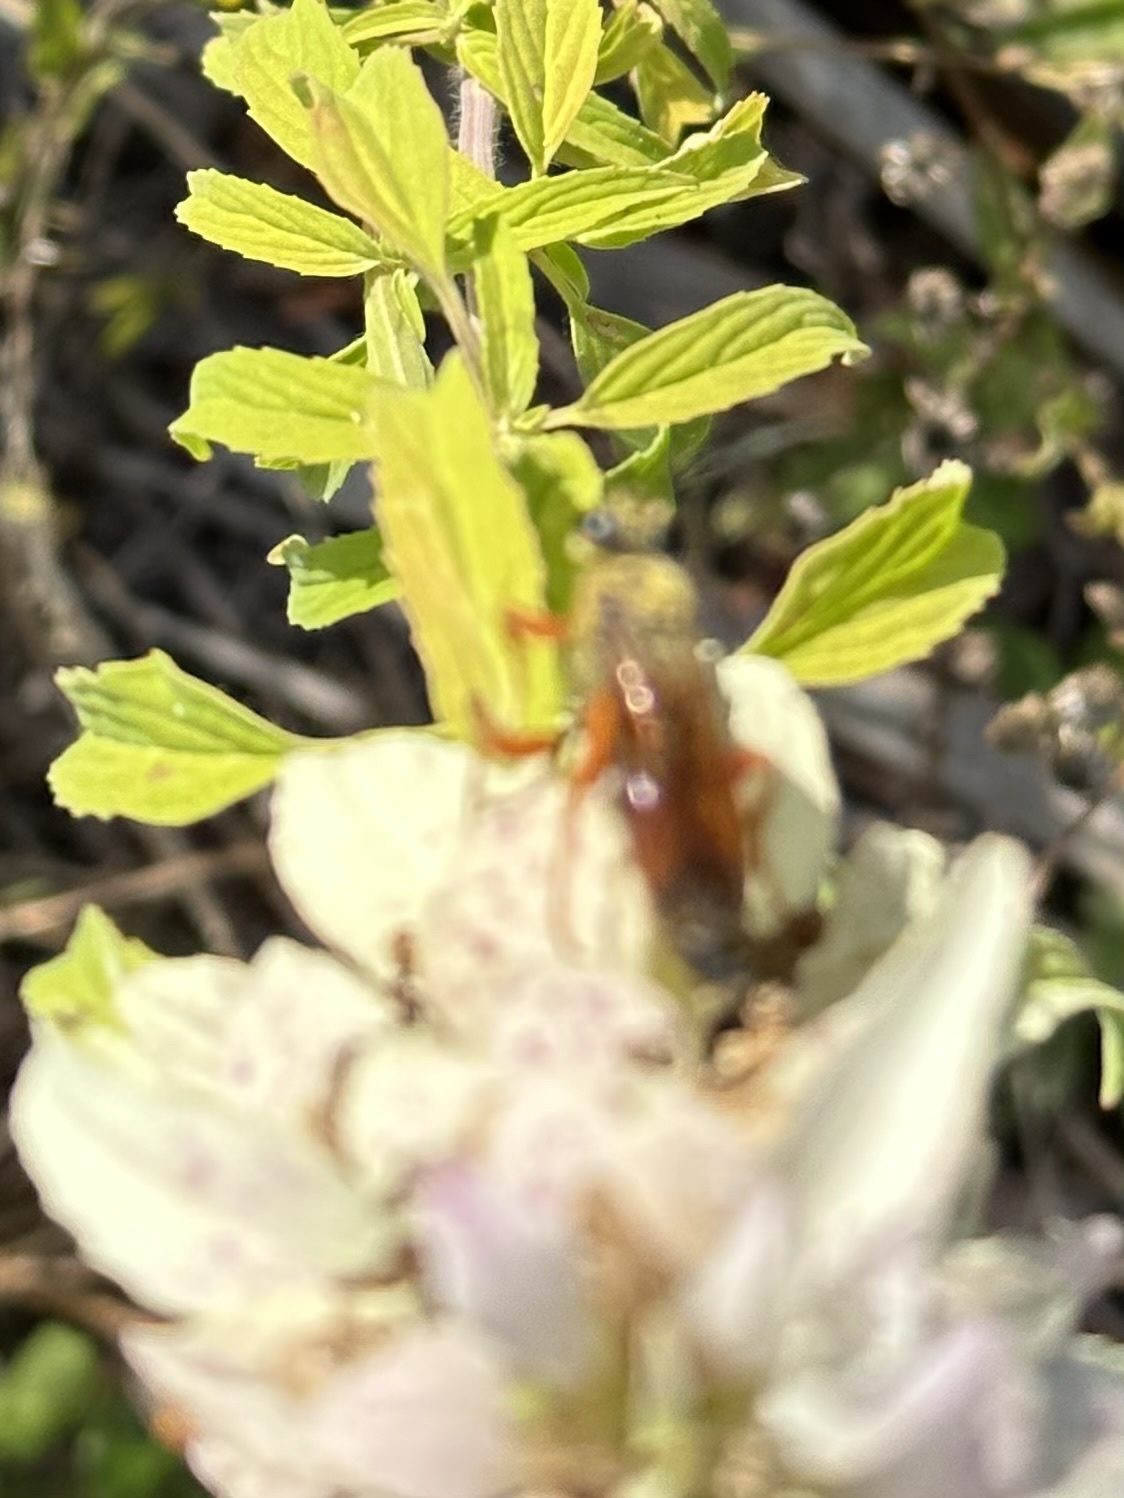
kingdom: Animalia
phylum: Arthropoda
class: Insecta
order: Hymenoptera
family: Sphecidae
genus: Sphex
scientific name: Sphex ichneumoneus
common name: Great golden digger wasp
